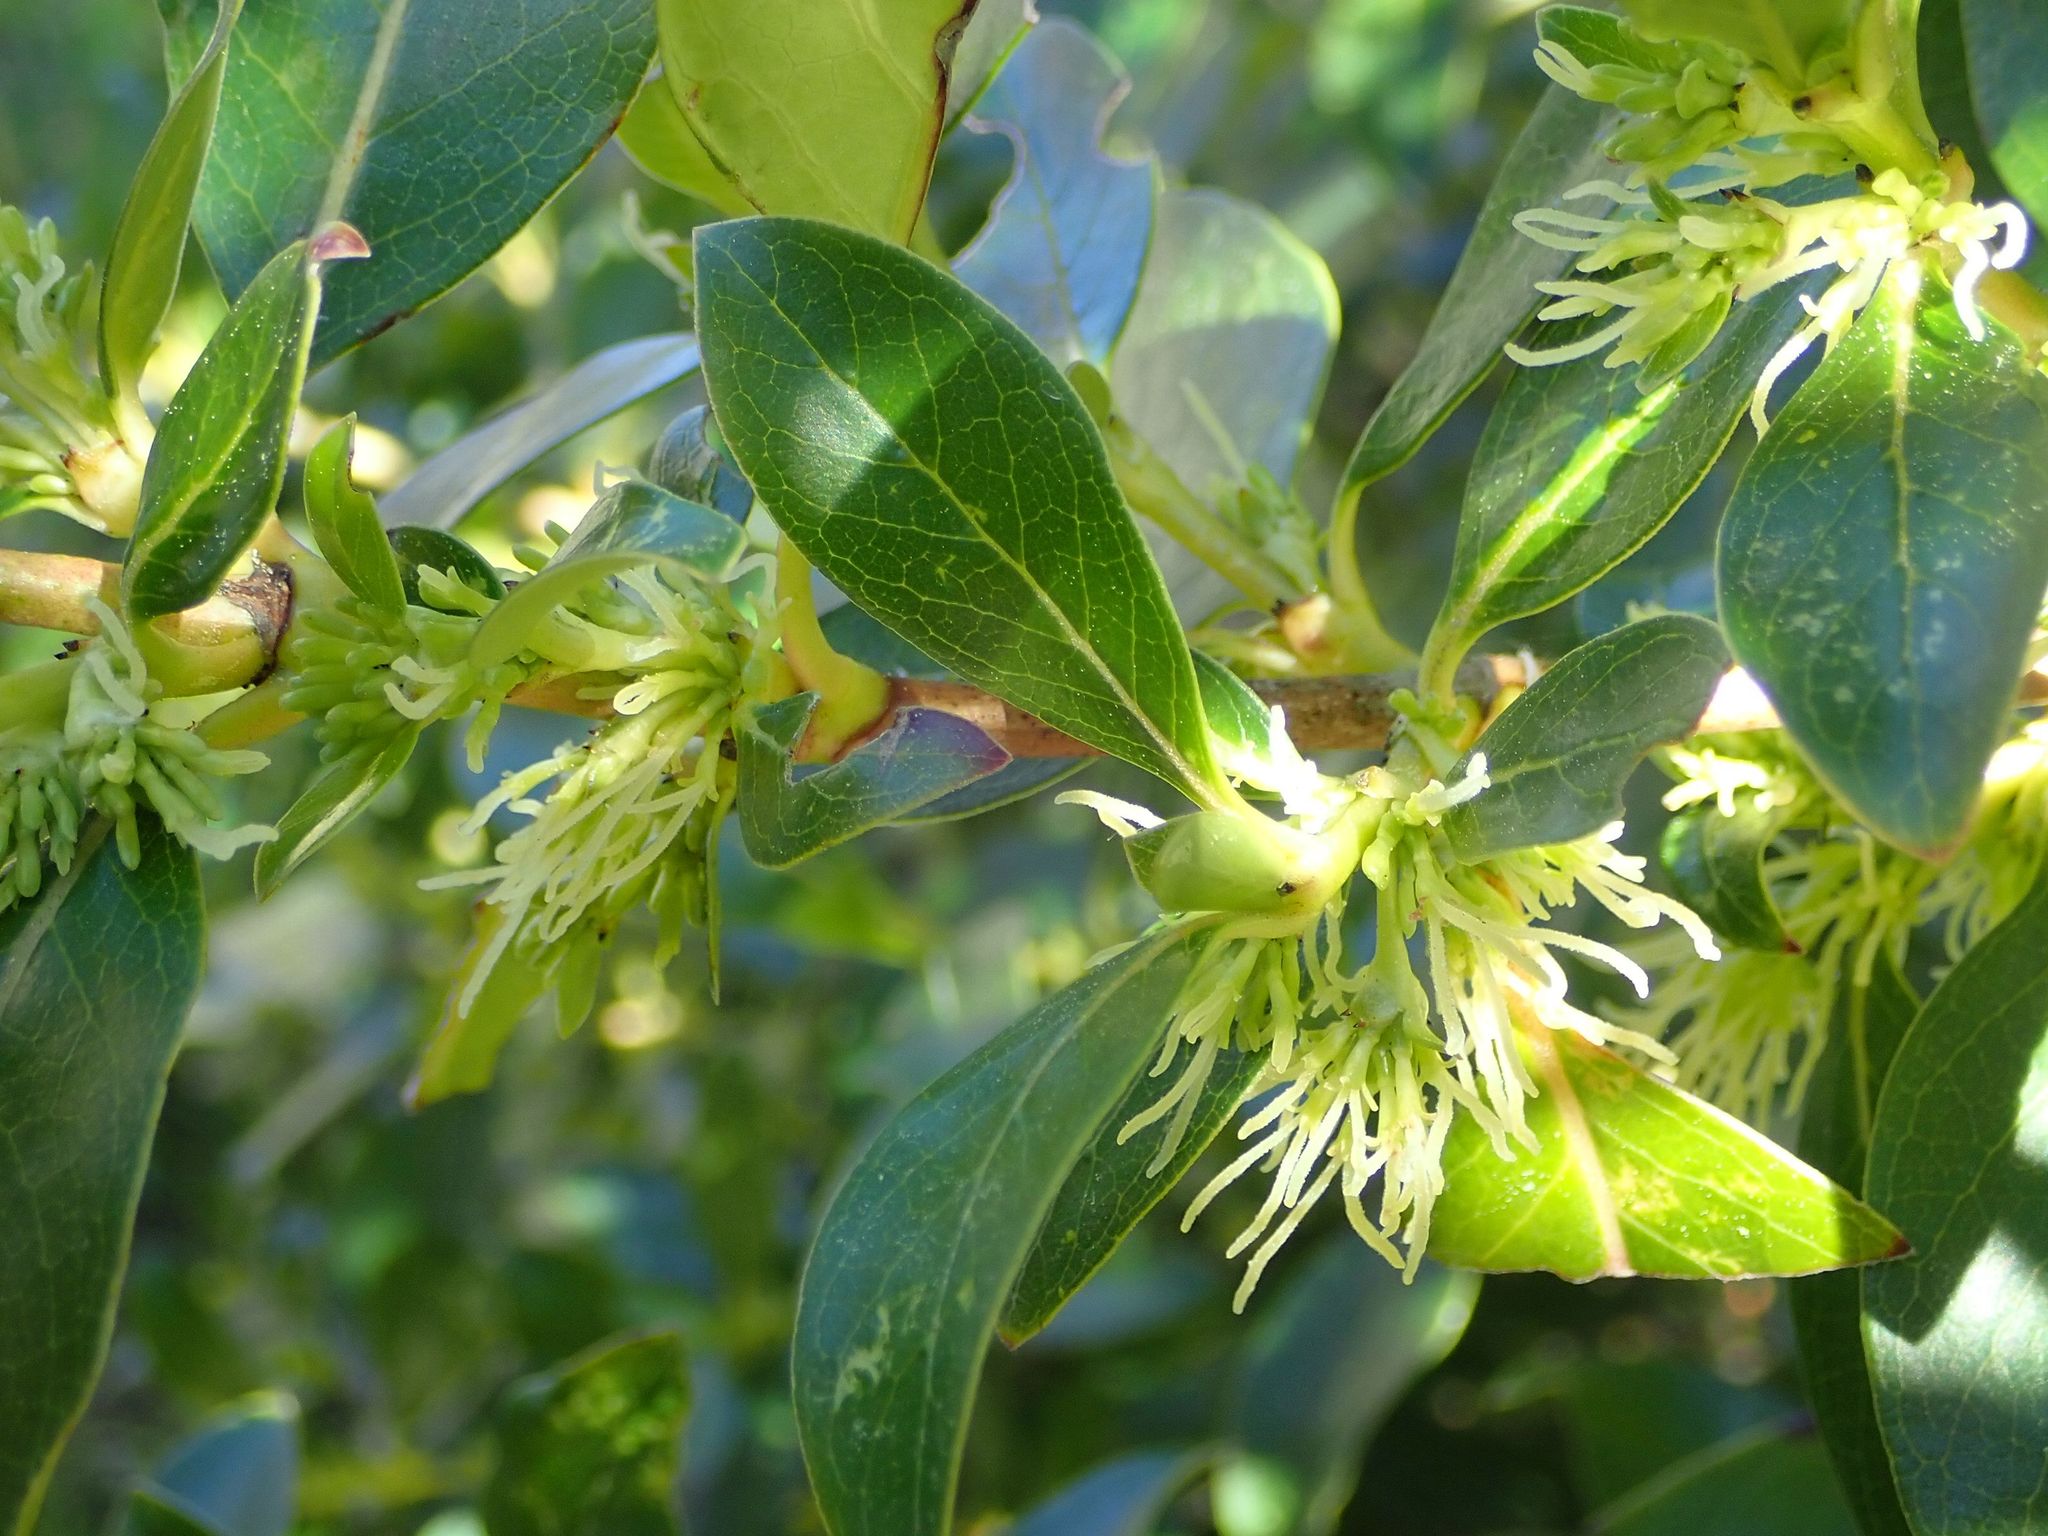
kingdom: Plantae
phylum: Tracheophyta
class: Magnoliopsida
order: Gentianales
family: Rubiaceae
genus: Coprosma
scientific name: Coprosma robusta
